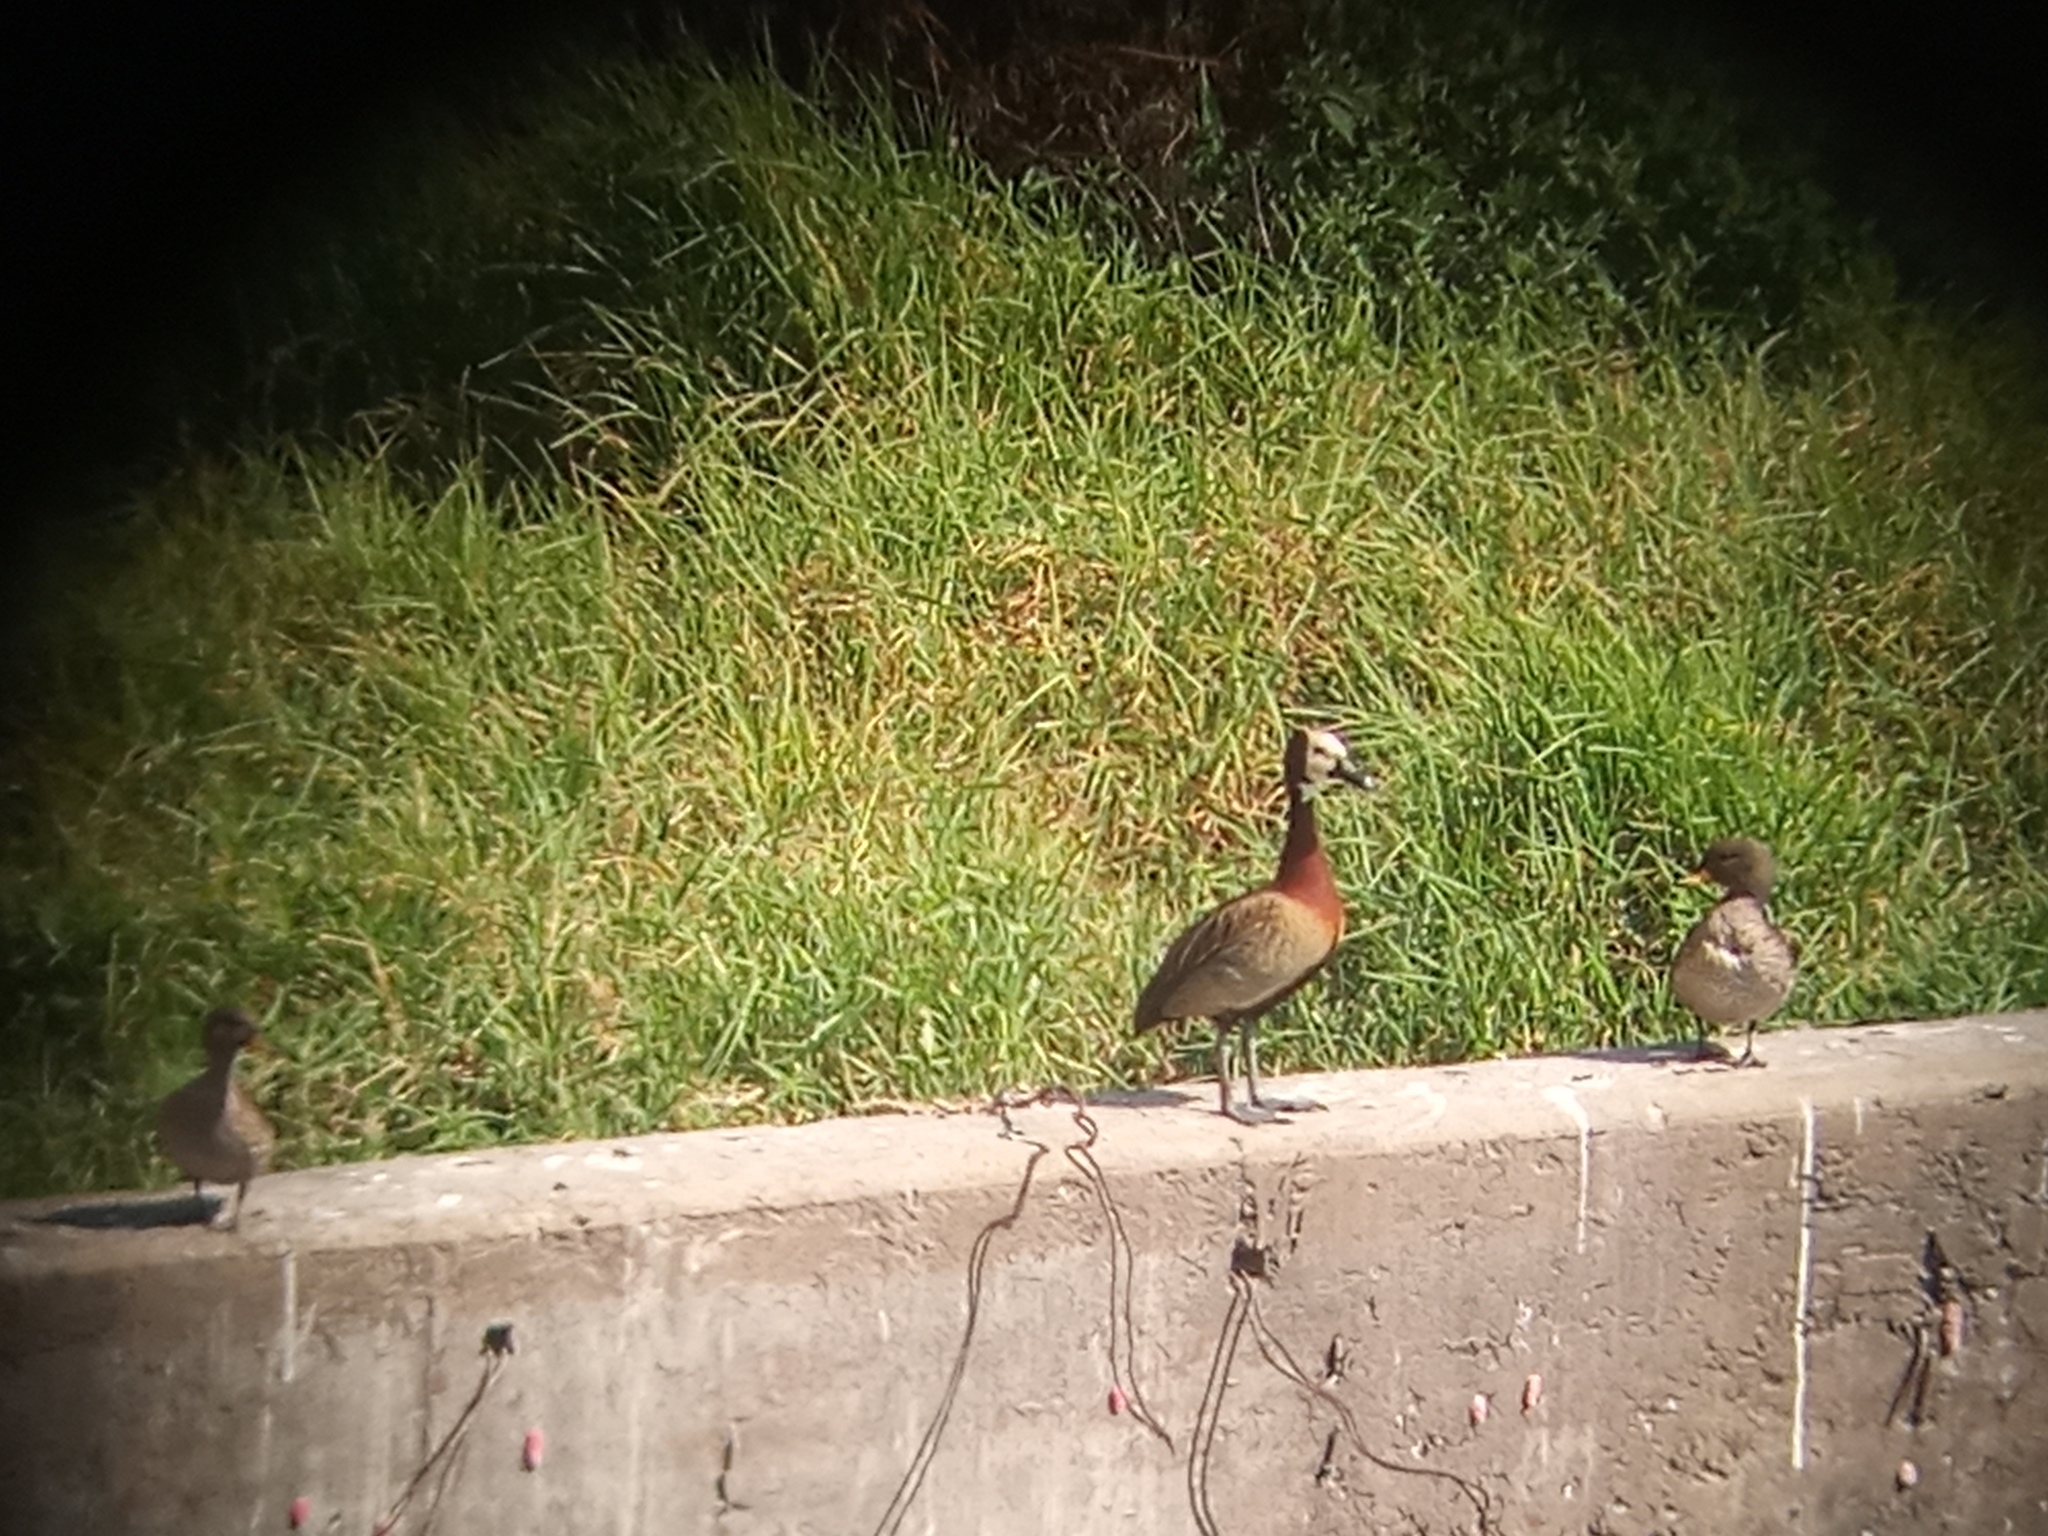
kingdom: Animalia
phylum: Chordata
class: Aves
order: Anseriformes
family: Anatidae
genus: Dendrocygna
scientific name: Dendrocygna viduata
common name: White-faced whistling duck
